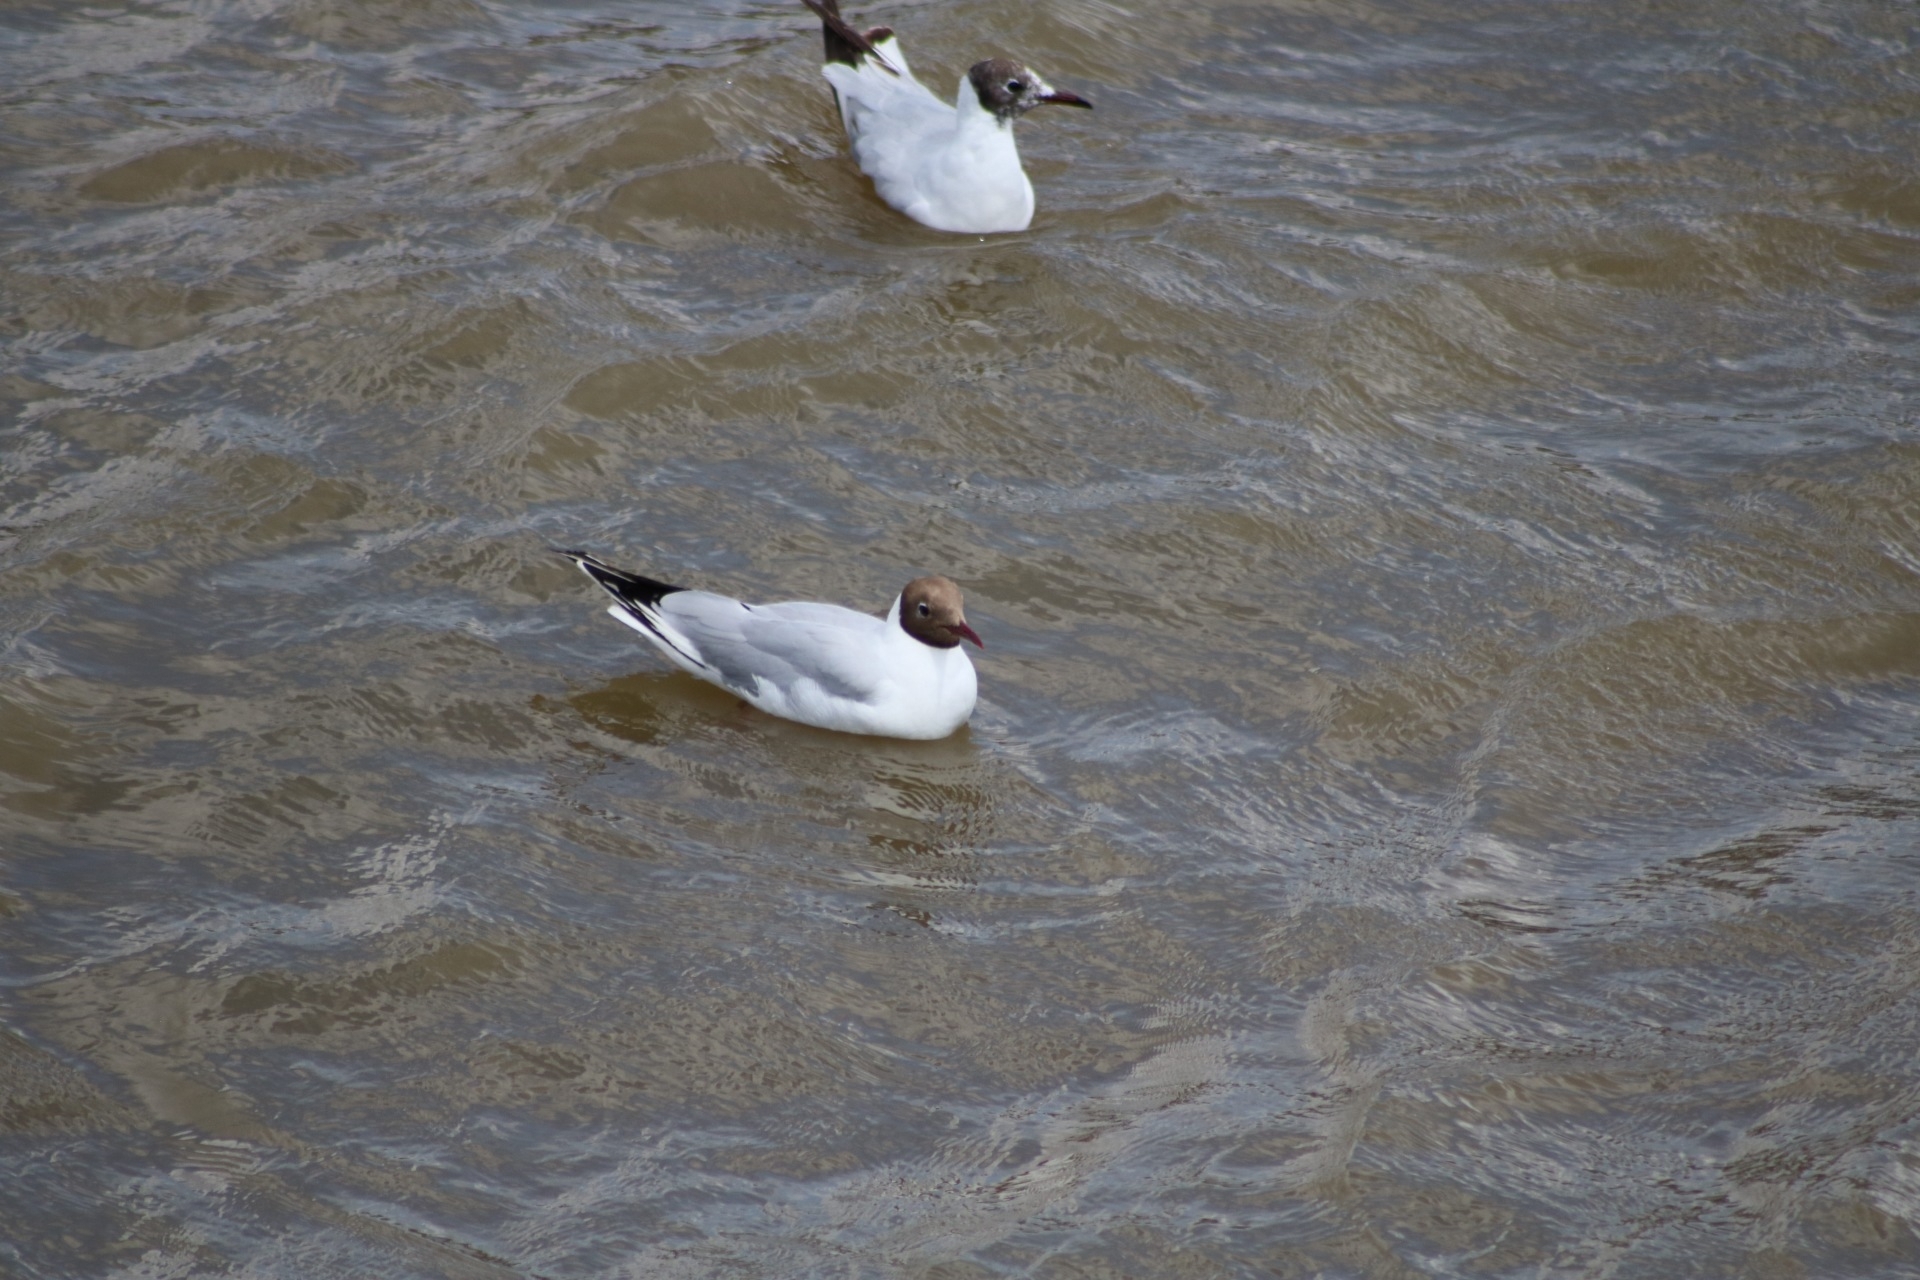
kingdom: Animalia
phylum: Chordata
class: Aves
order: Charadriiformes
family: Laridae
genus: Chroicocephalus
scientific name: Chroicocephalus ridibundus
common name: Black-headed gull
